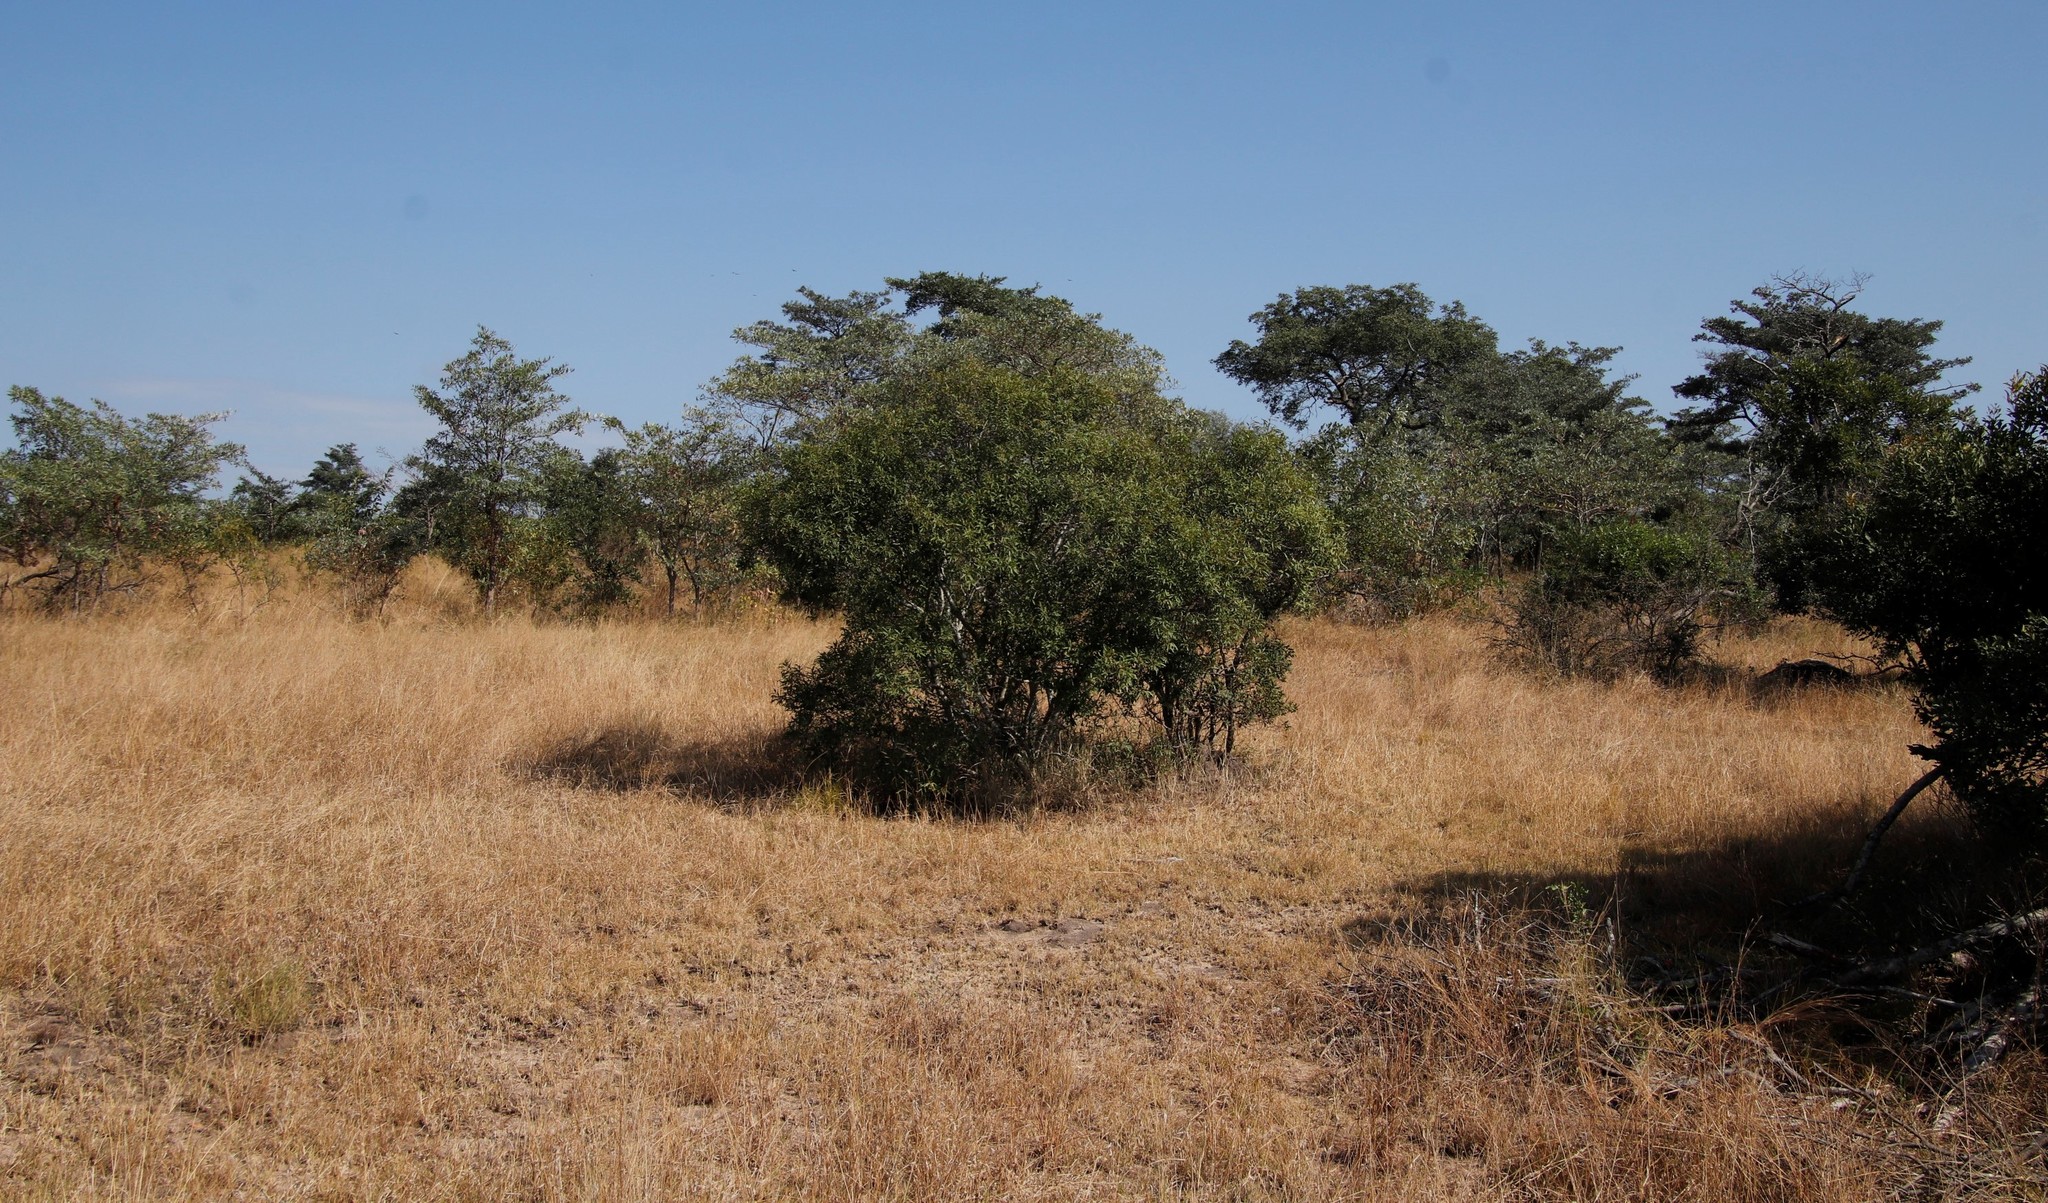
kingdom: Plantae
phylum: Tracheophyta
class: Magnoliopsida
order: Ericales
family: Ebenaceae
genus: Euclea
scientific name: Euclea divinorum
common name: Diamond-leaved euclea
